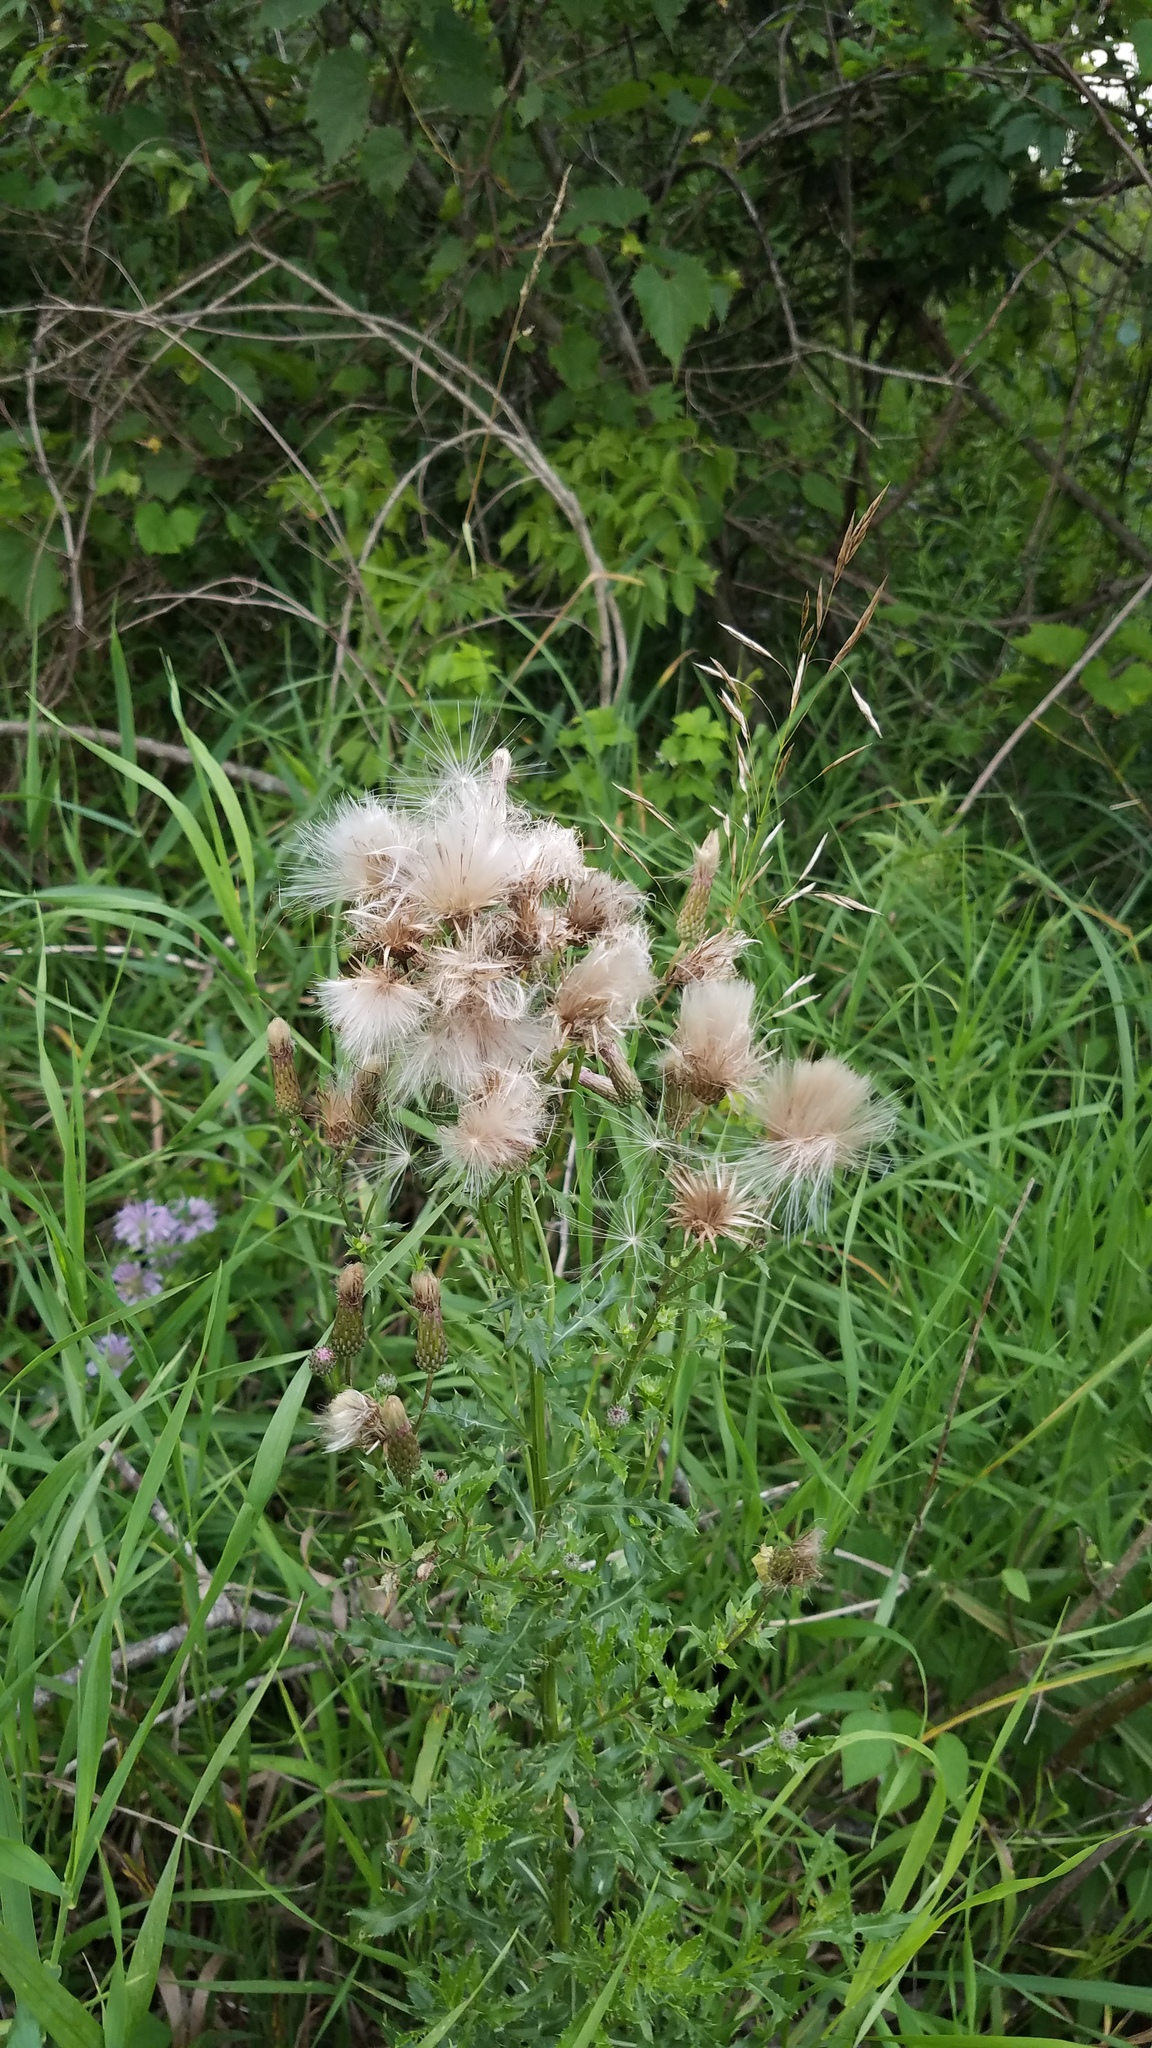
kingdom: Plantae
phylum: Tracheophyta
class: Magnoliopsida
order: Asterales
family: Asteraceae
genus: Cirsium
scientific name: Cirsium arvense
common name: Creeping thistle
